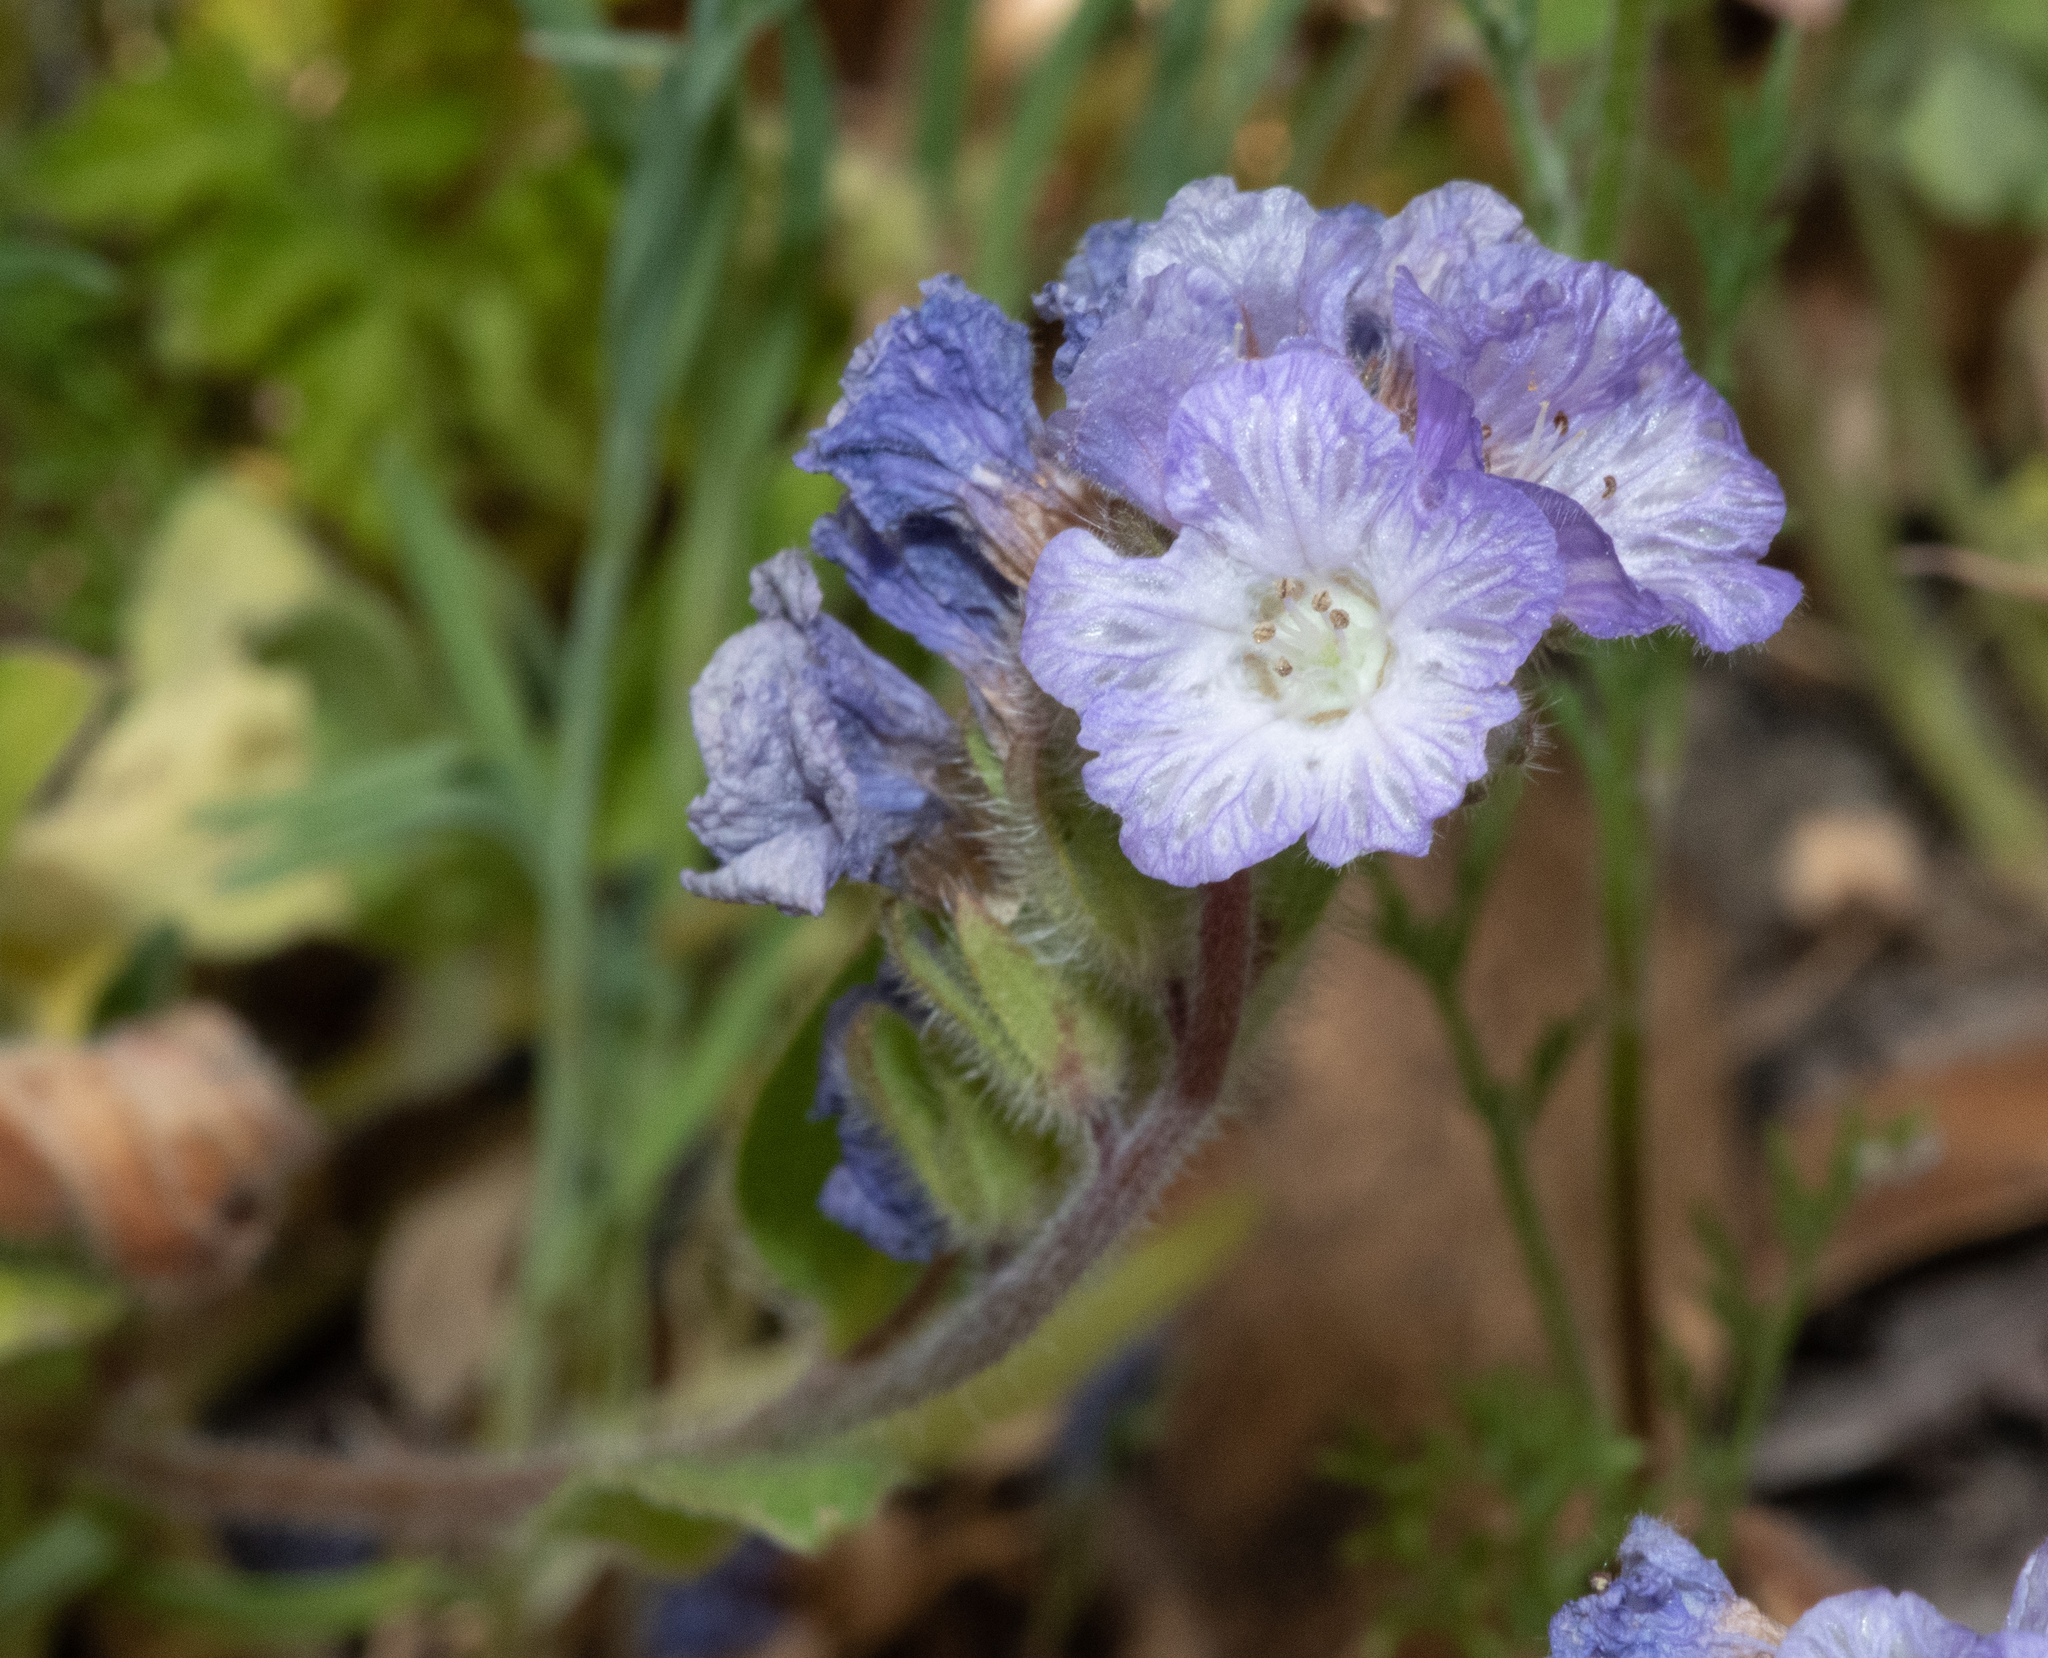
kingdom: Plantae
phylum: Tracheophyta
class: Magnoliopsida
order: Boraginales
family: Hydrophyllaceae
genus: Phacelia
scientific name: Phacelia divaricata
